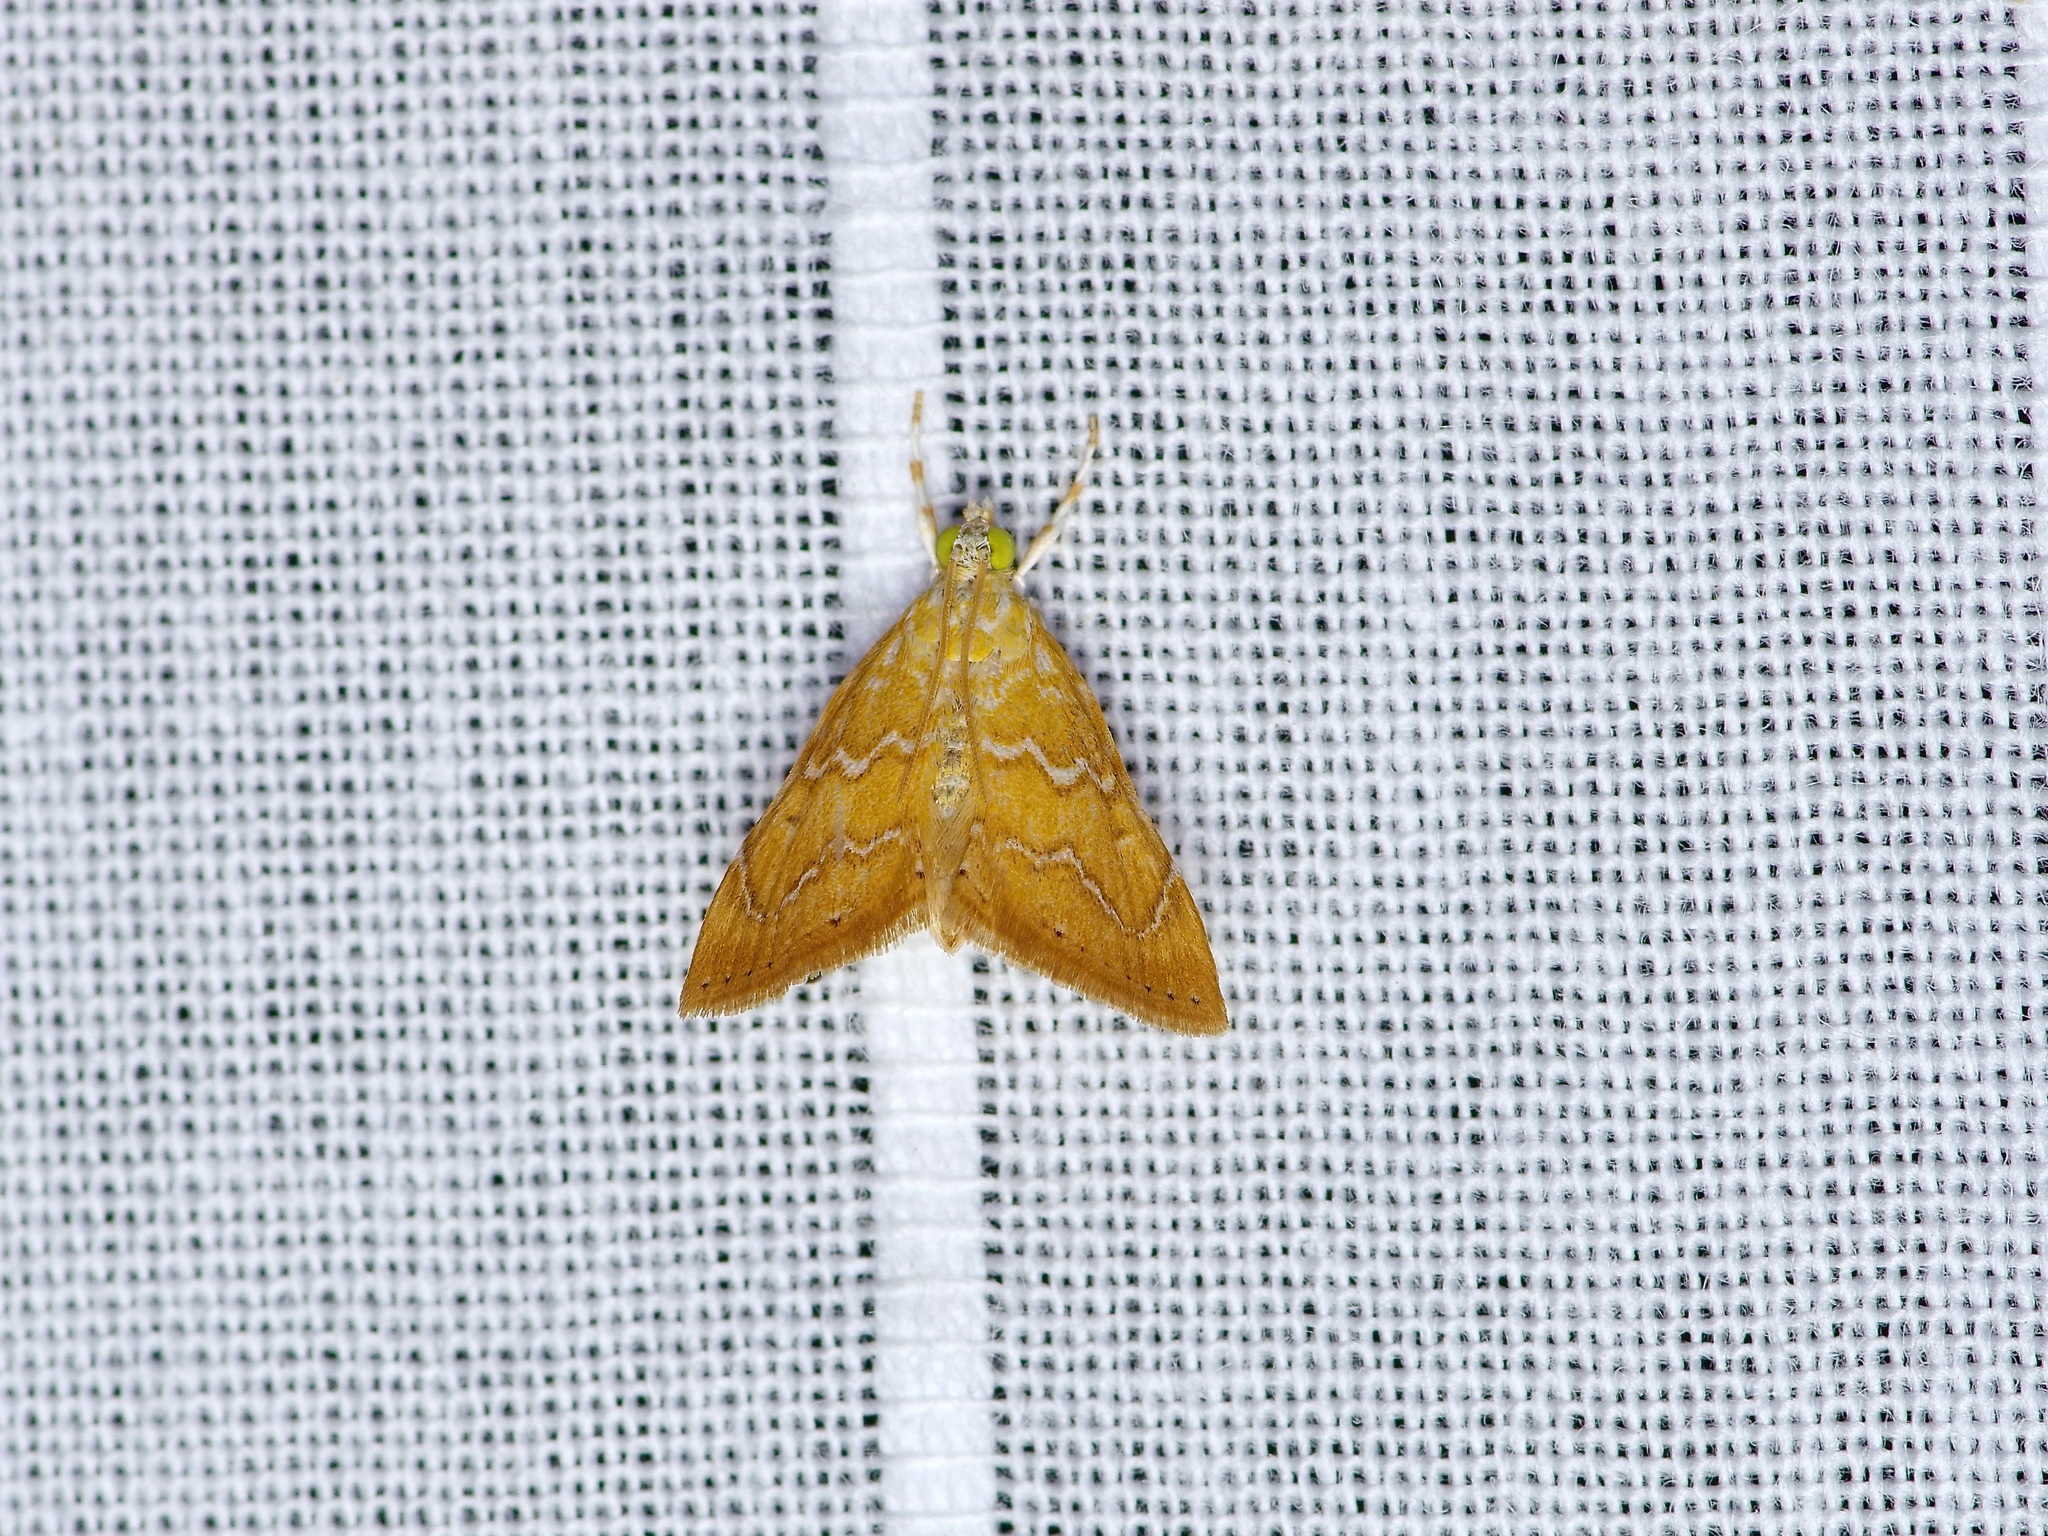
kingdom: Animalia
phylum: Arthropoda
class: Insecta
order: Lepidoptera
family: Crambidae
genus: Glaphyria
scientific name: Glaphyria sesquistrialis
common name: White-roped glaphyria
